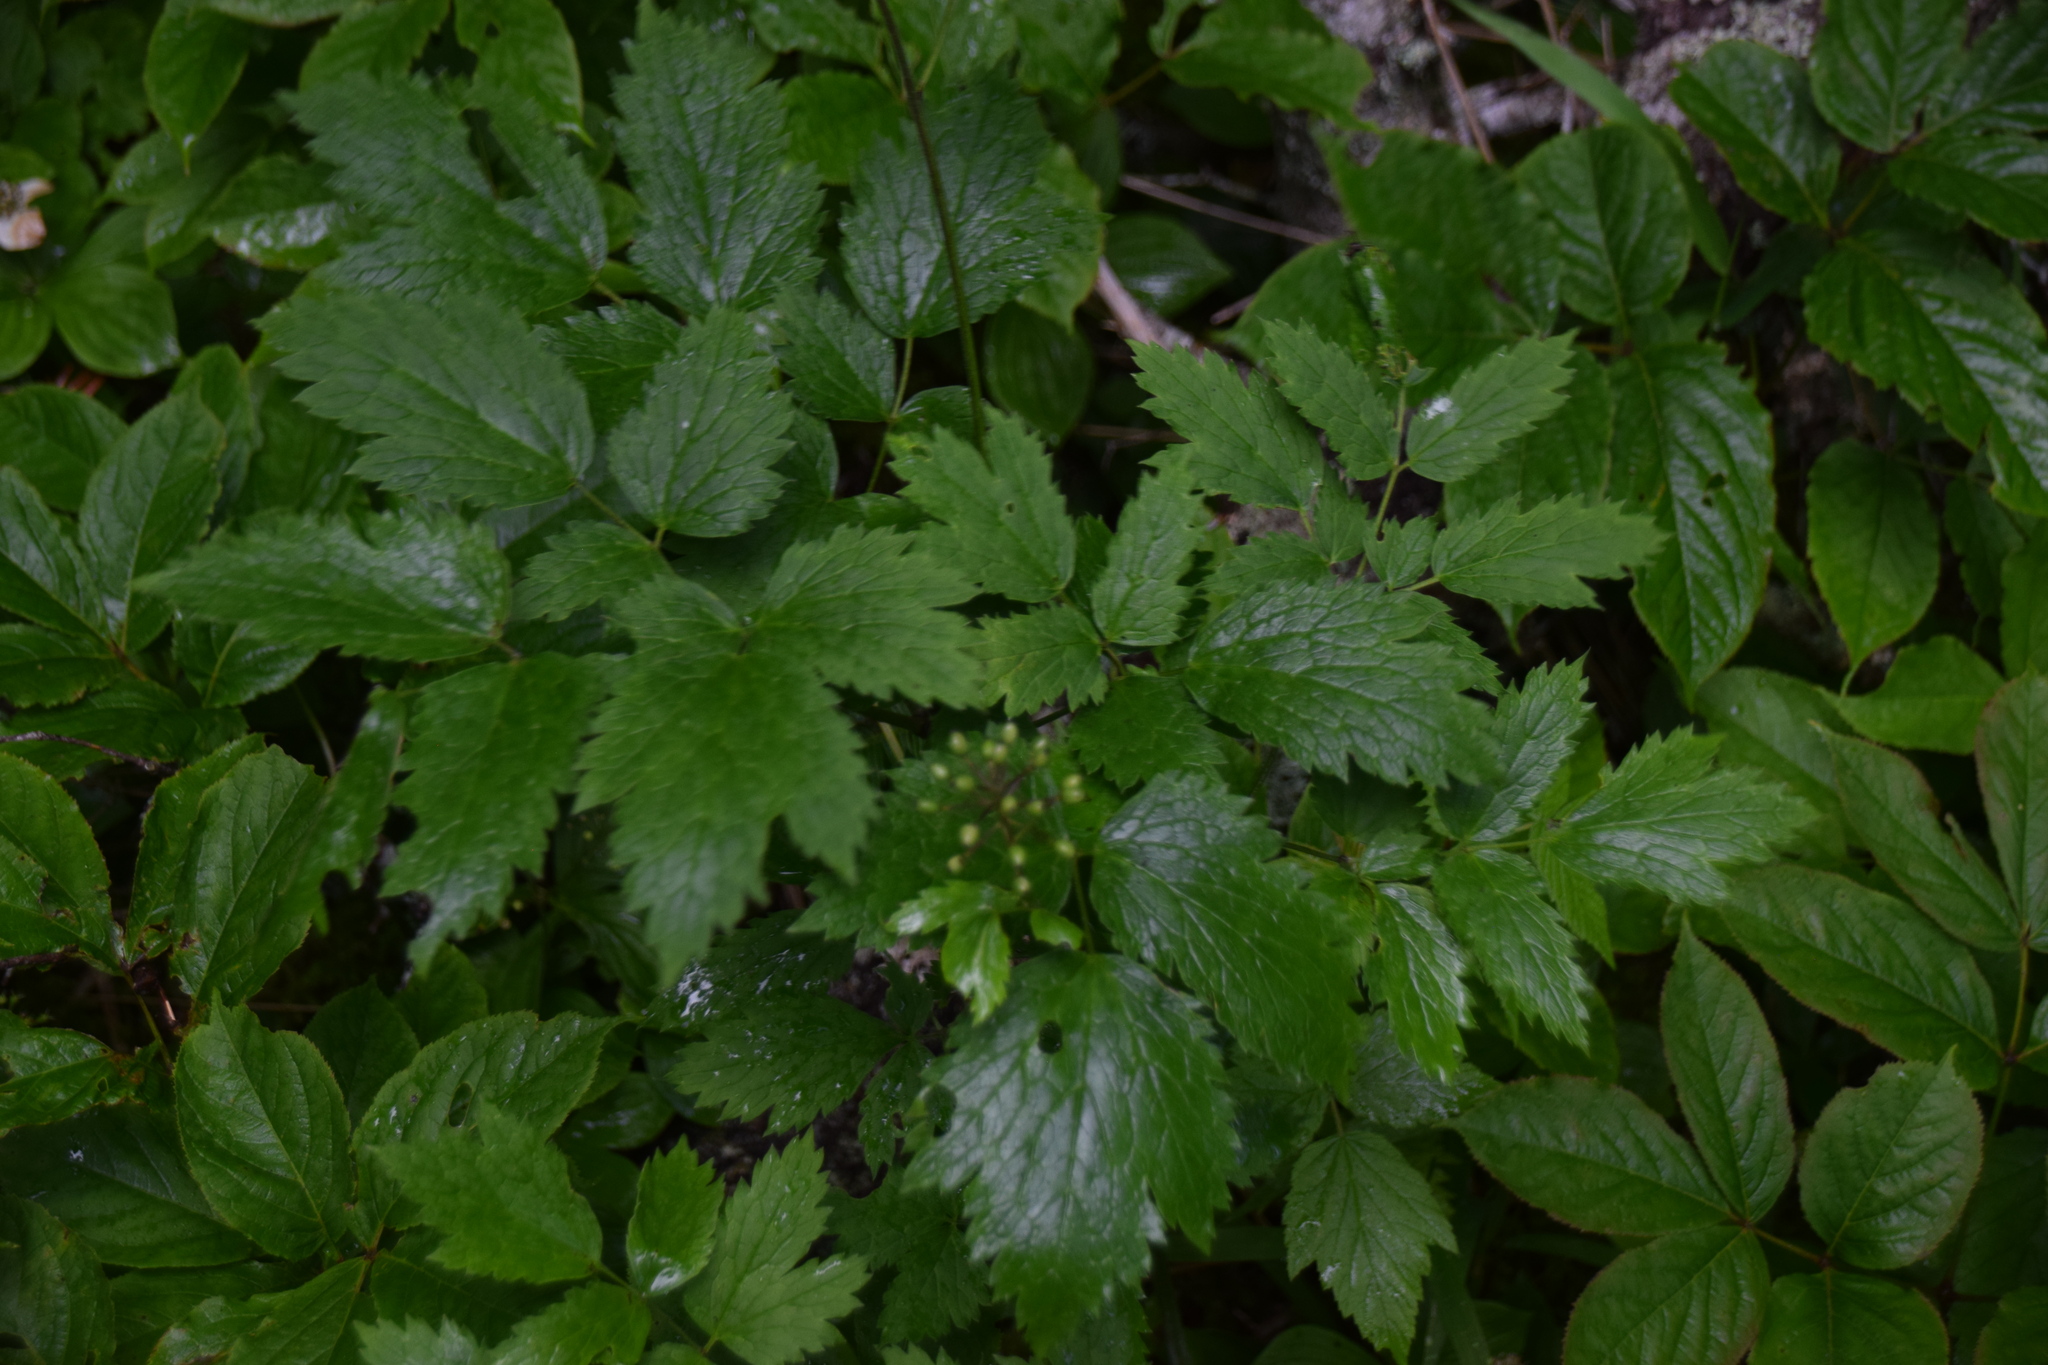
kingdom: Plantae
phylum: Tracheophyta
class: Magnoliopsida
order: Ranunculales
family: Ranunculaceae
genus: Actaea
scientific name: Actaea rubra
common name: Red baneberry
